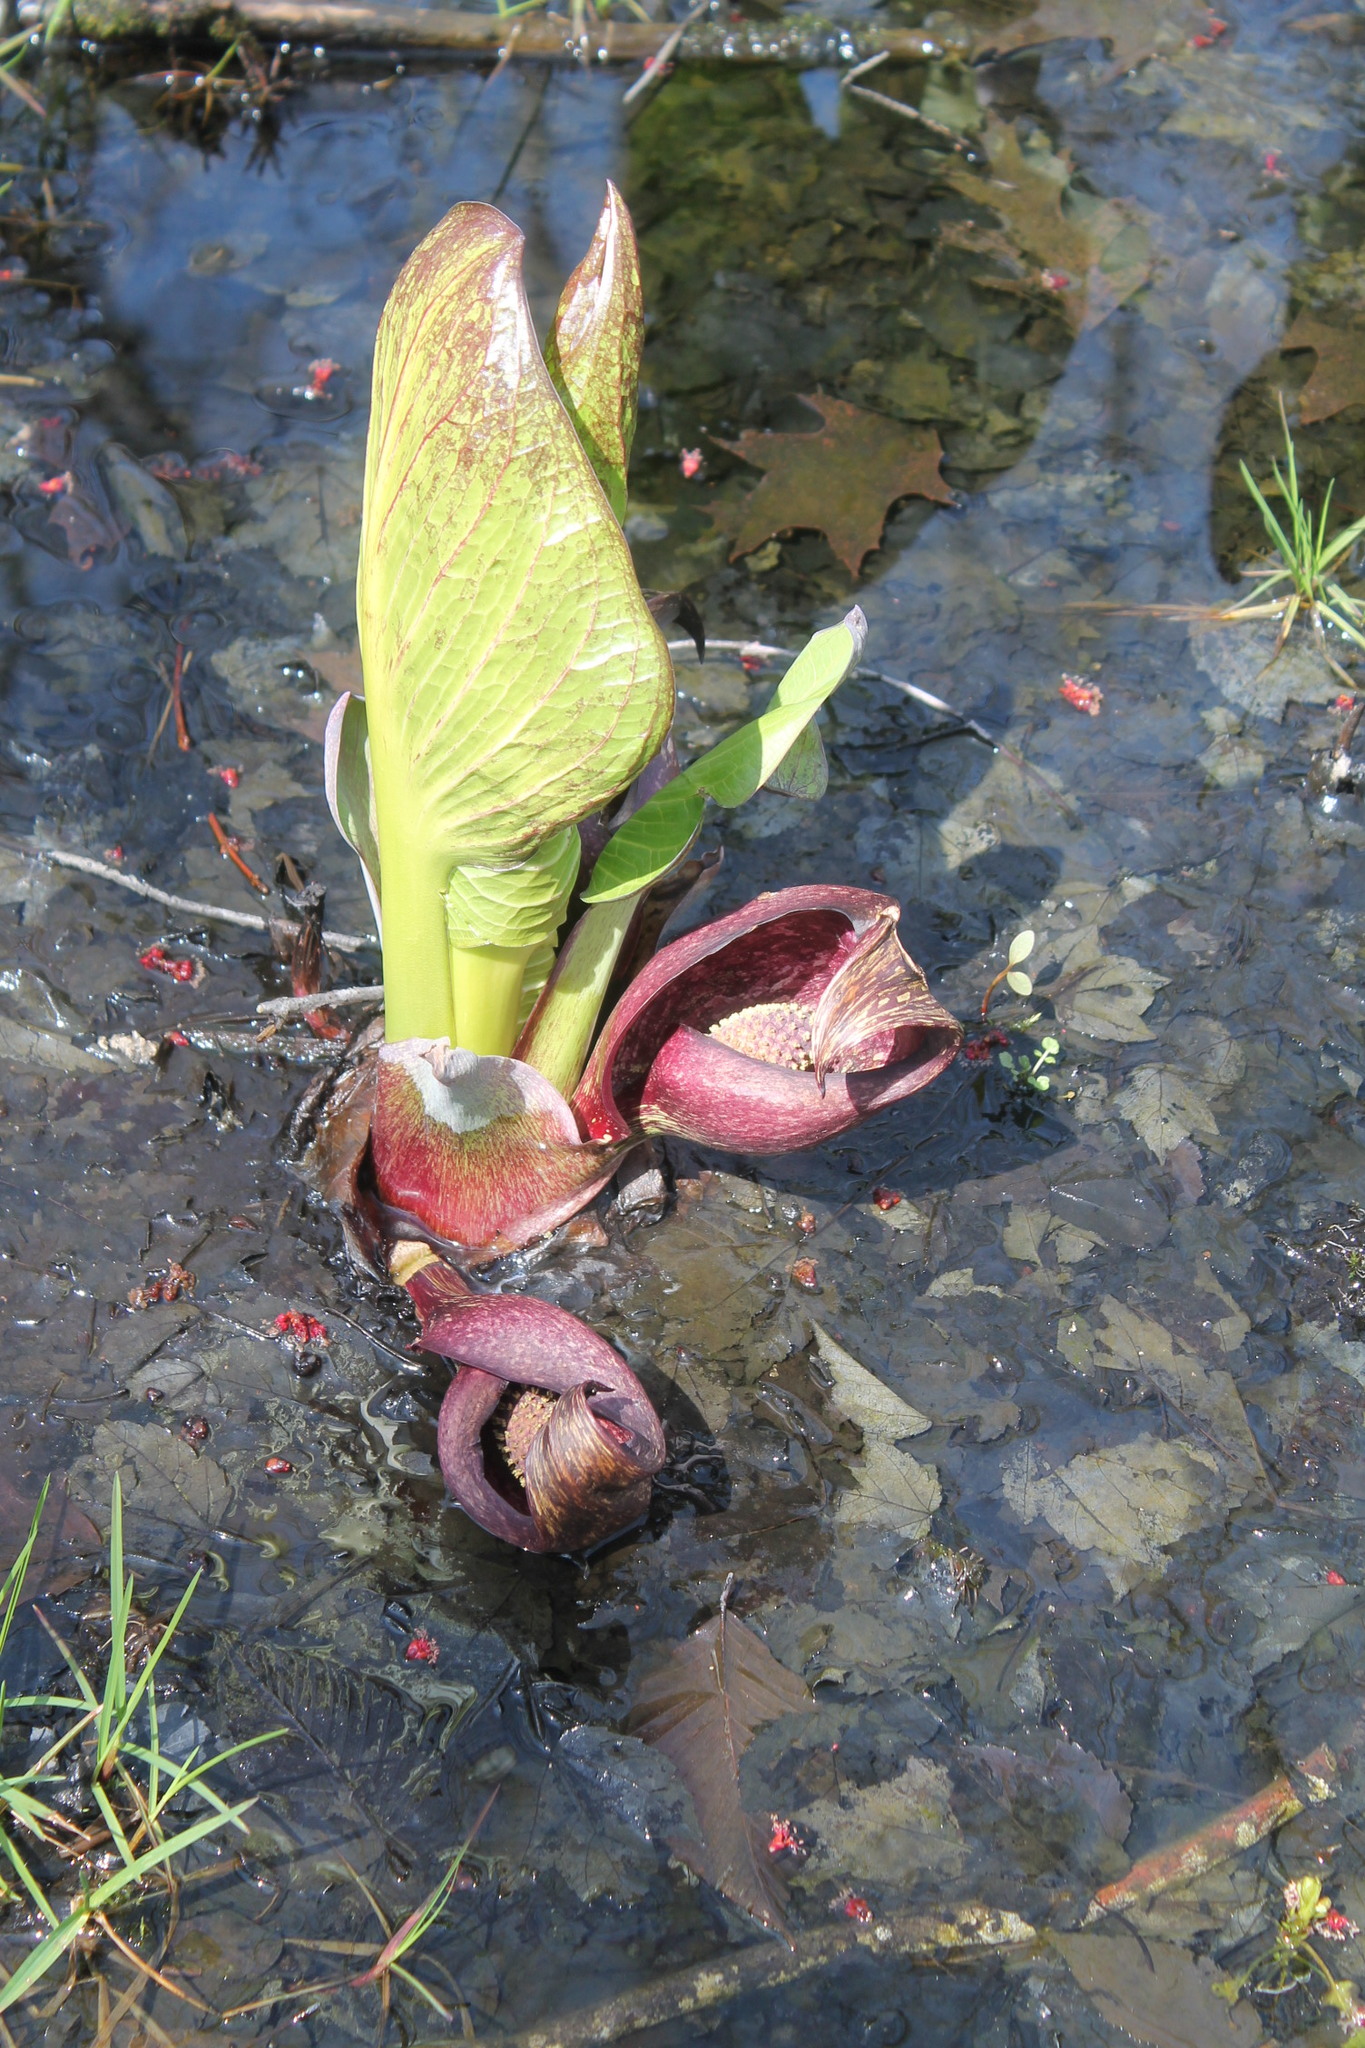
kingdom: Plantae
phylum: Tracheophyta
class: Liliopsida
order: Alismatales
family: Araceae
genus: Symplocarpus
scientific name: Symplocarpus foetidus
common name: Eastern skunk cabbage
